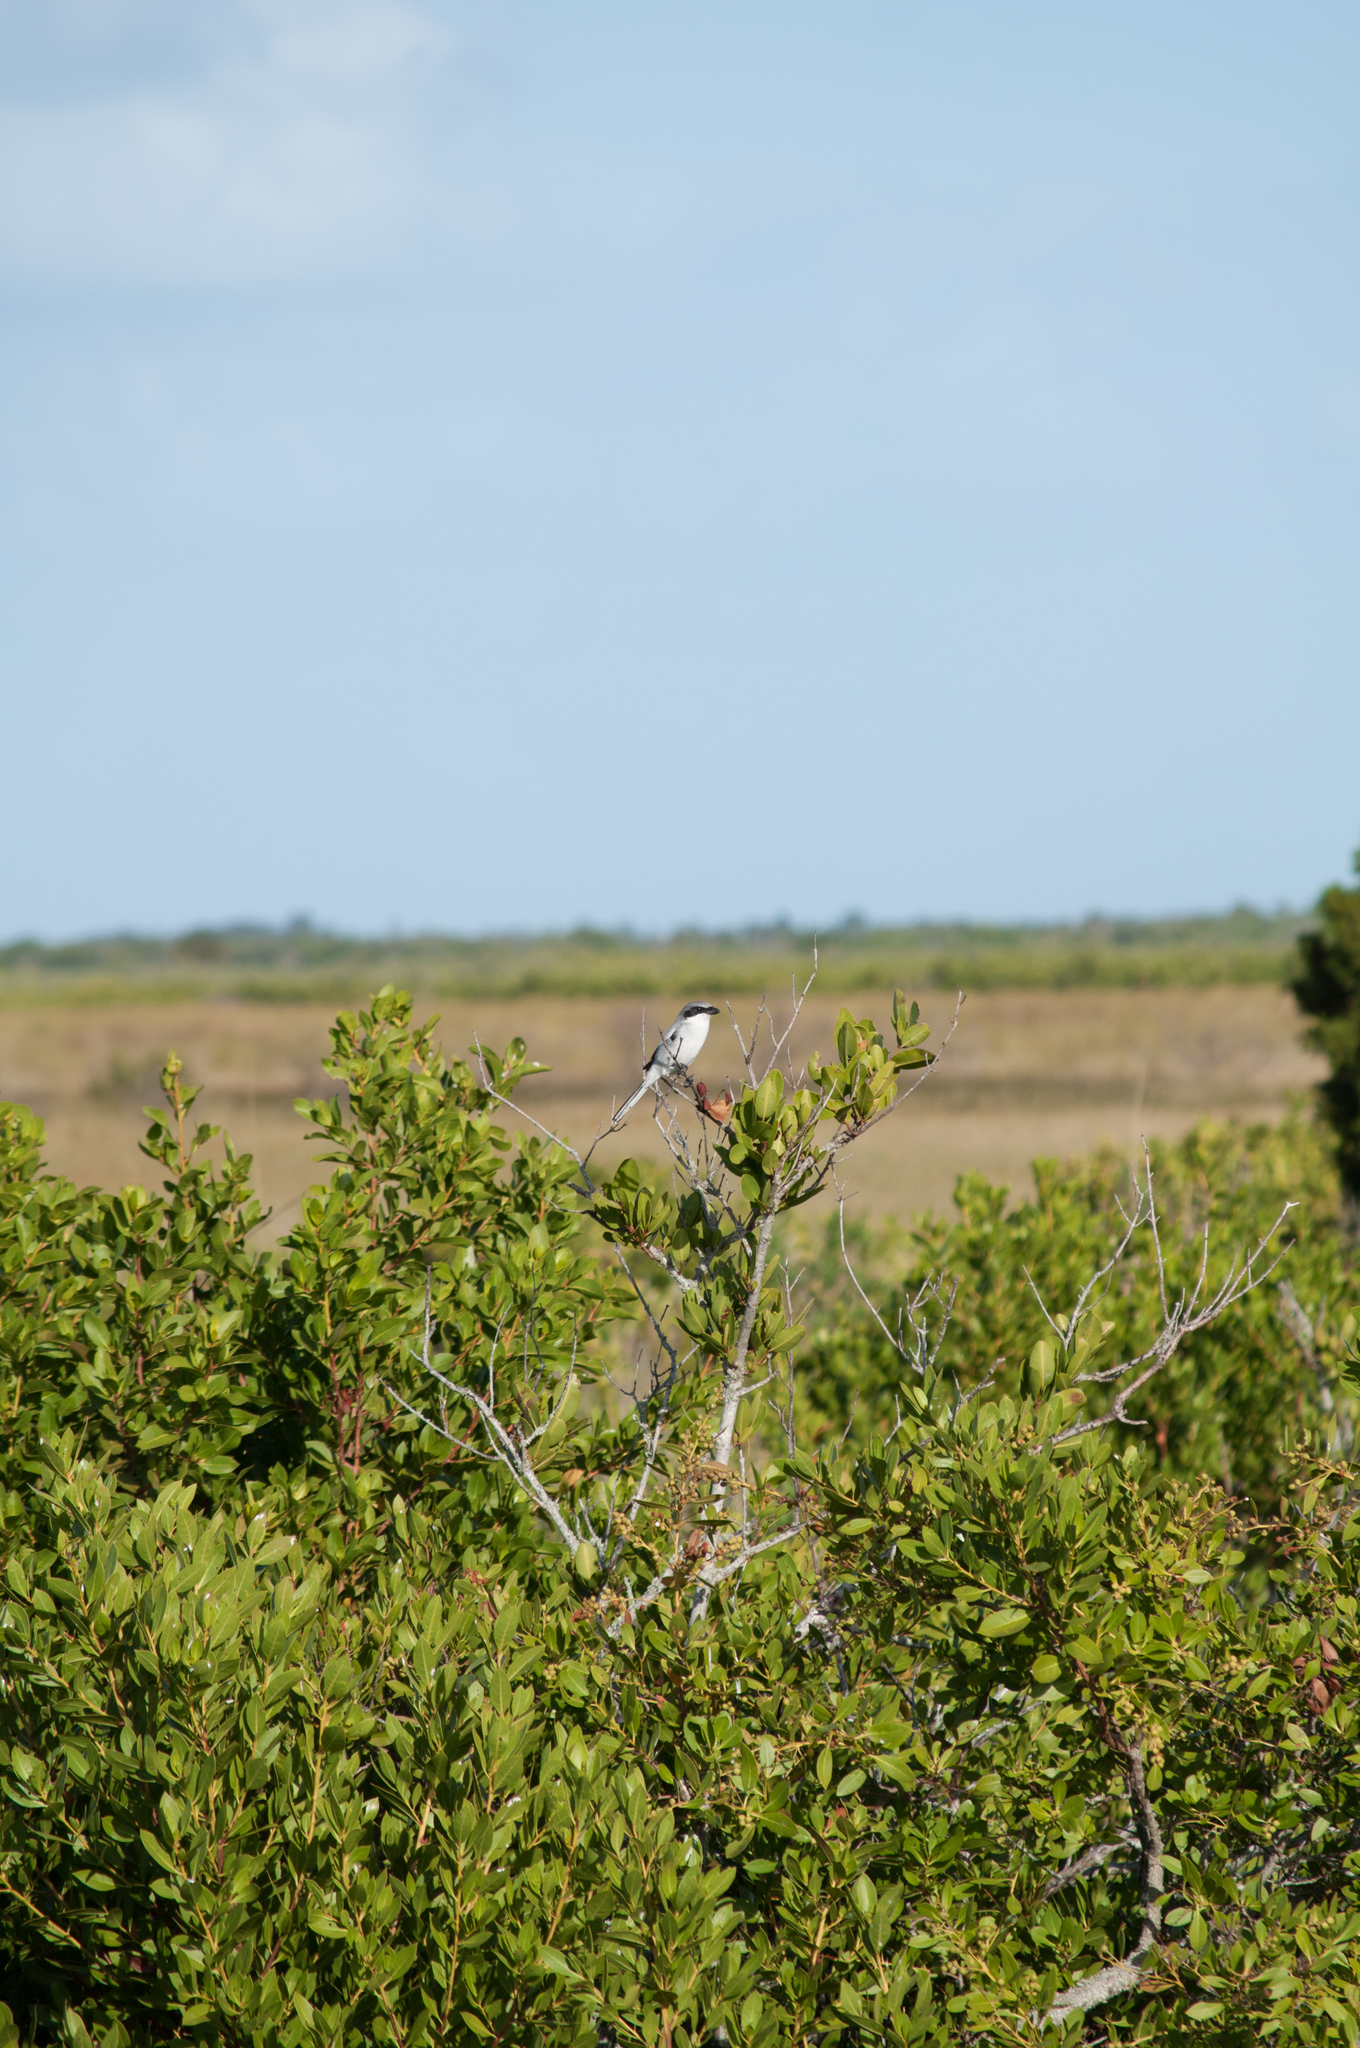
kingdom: Animalia
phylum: Chordata
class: Aves
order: Passeriformes
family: Laniidae
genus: Lanius
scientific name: Lanius ludovicianus
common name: Loggerhead shrike
